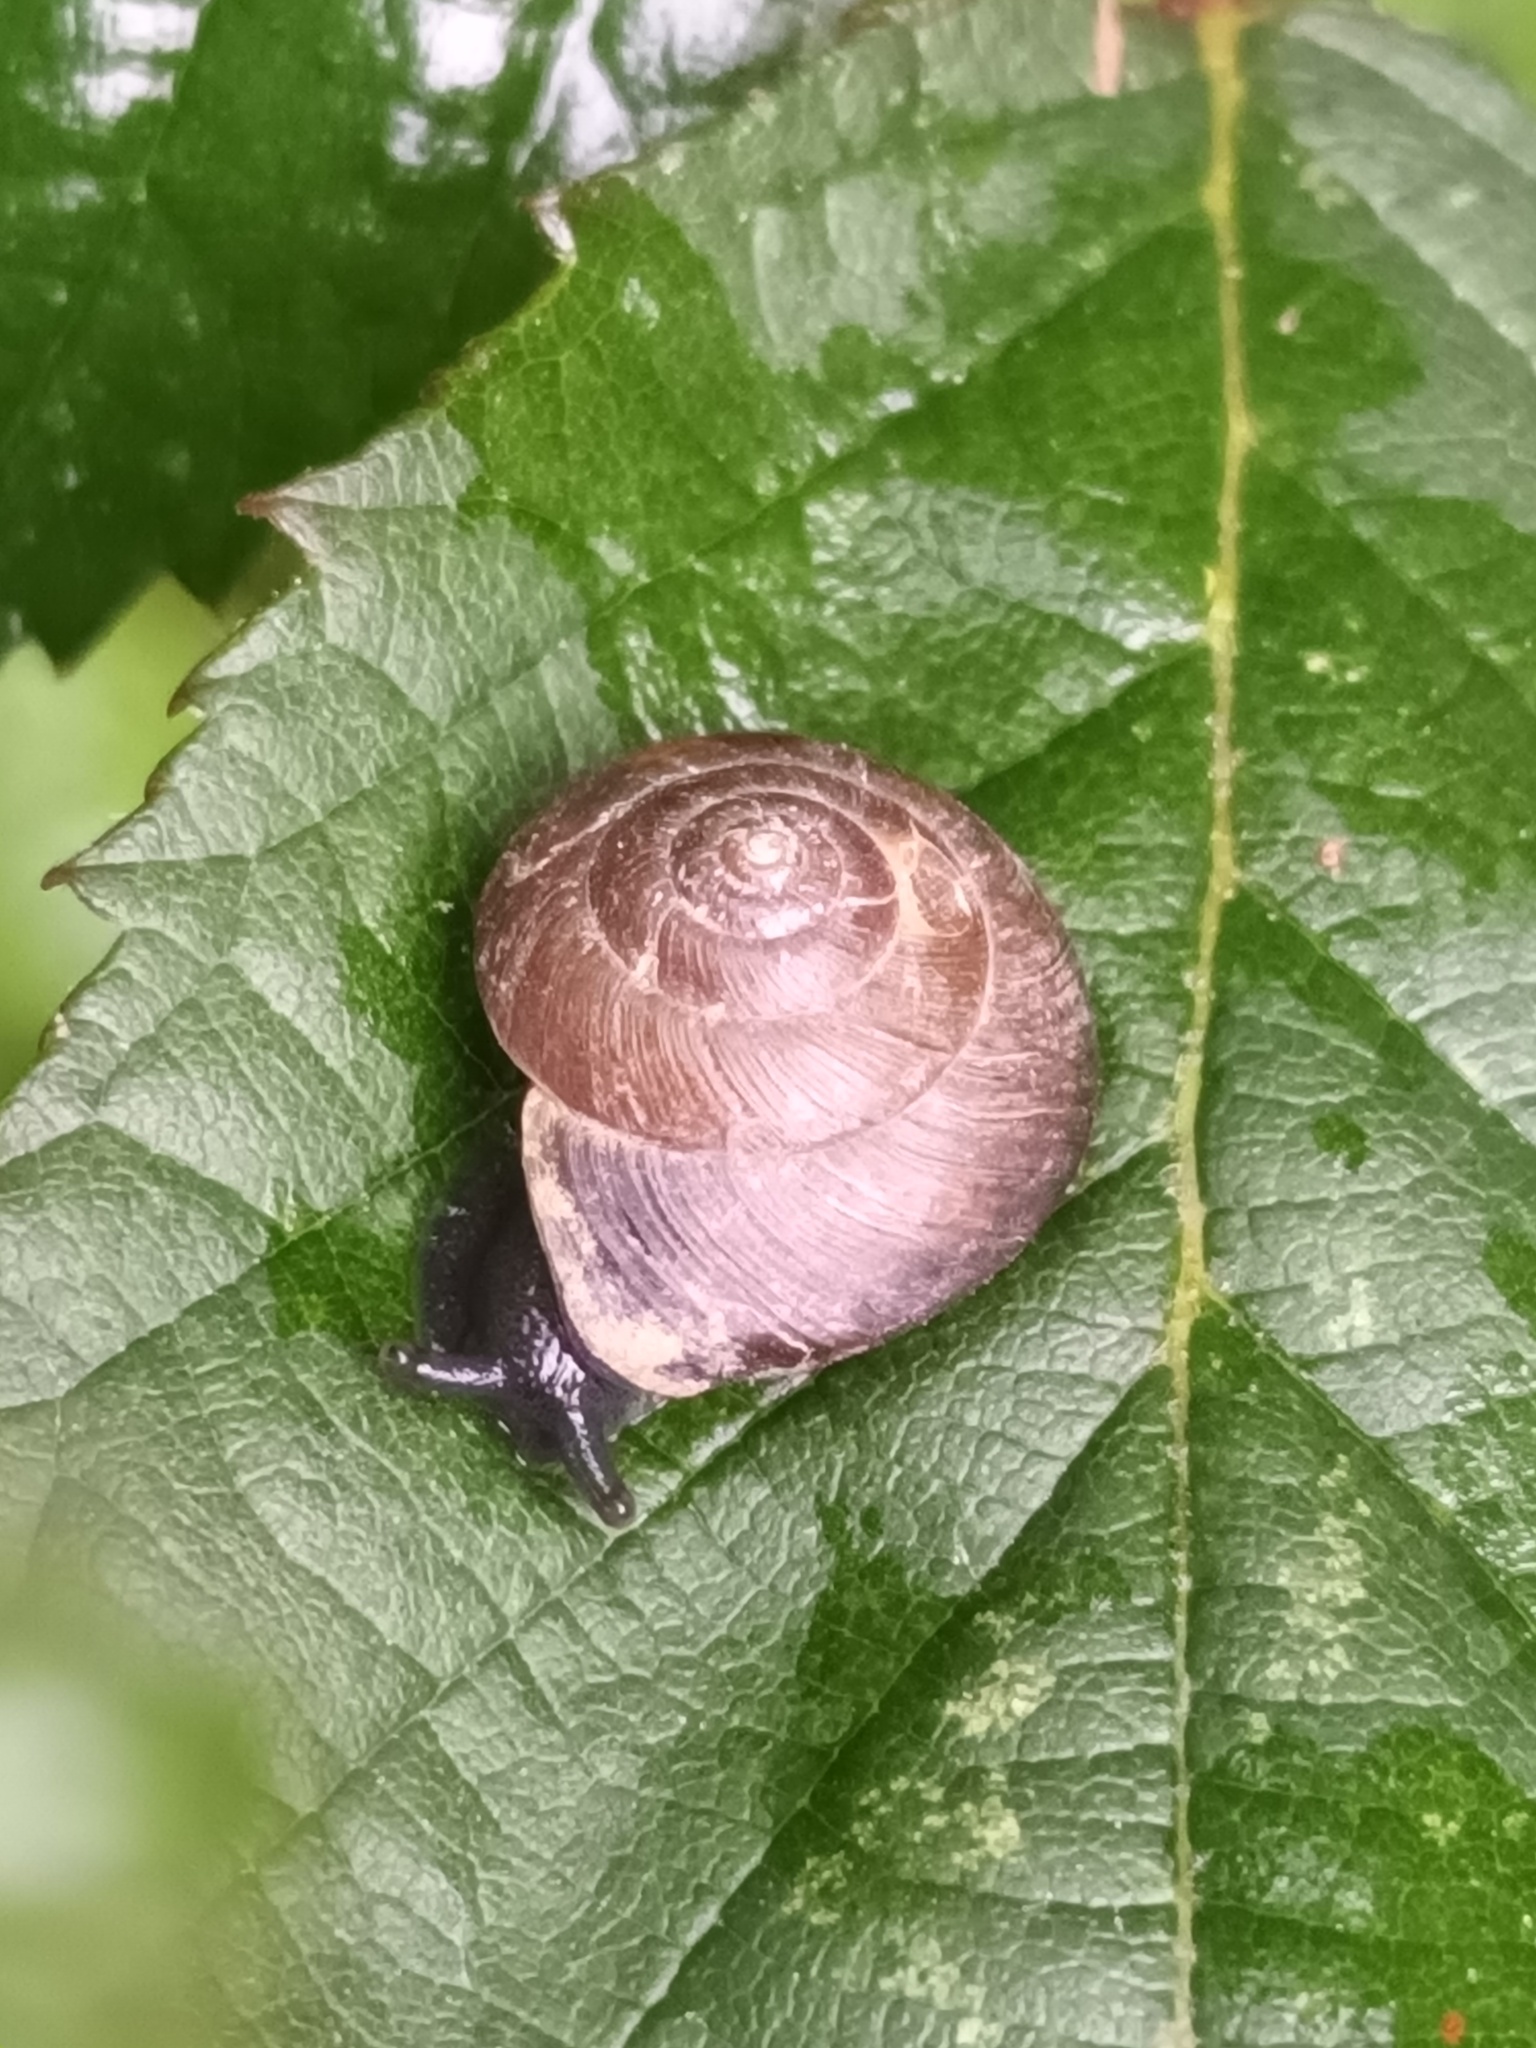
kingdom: Animalia
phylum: Mollusca
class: Gastropoda
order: Stylommatophora
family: Hygromiidae
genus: Hygromia
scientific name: Hygromia cinctella
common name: Girdled snail
